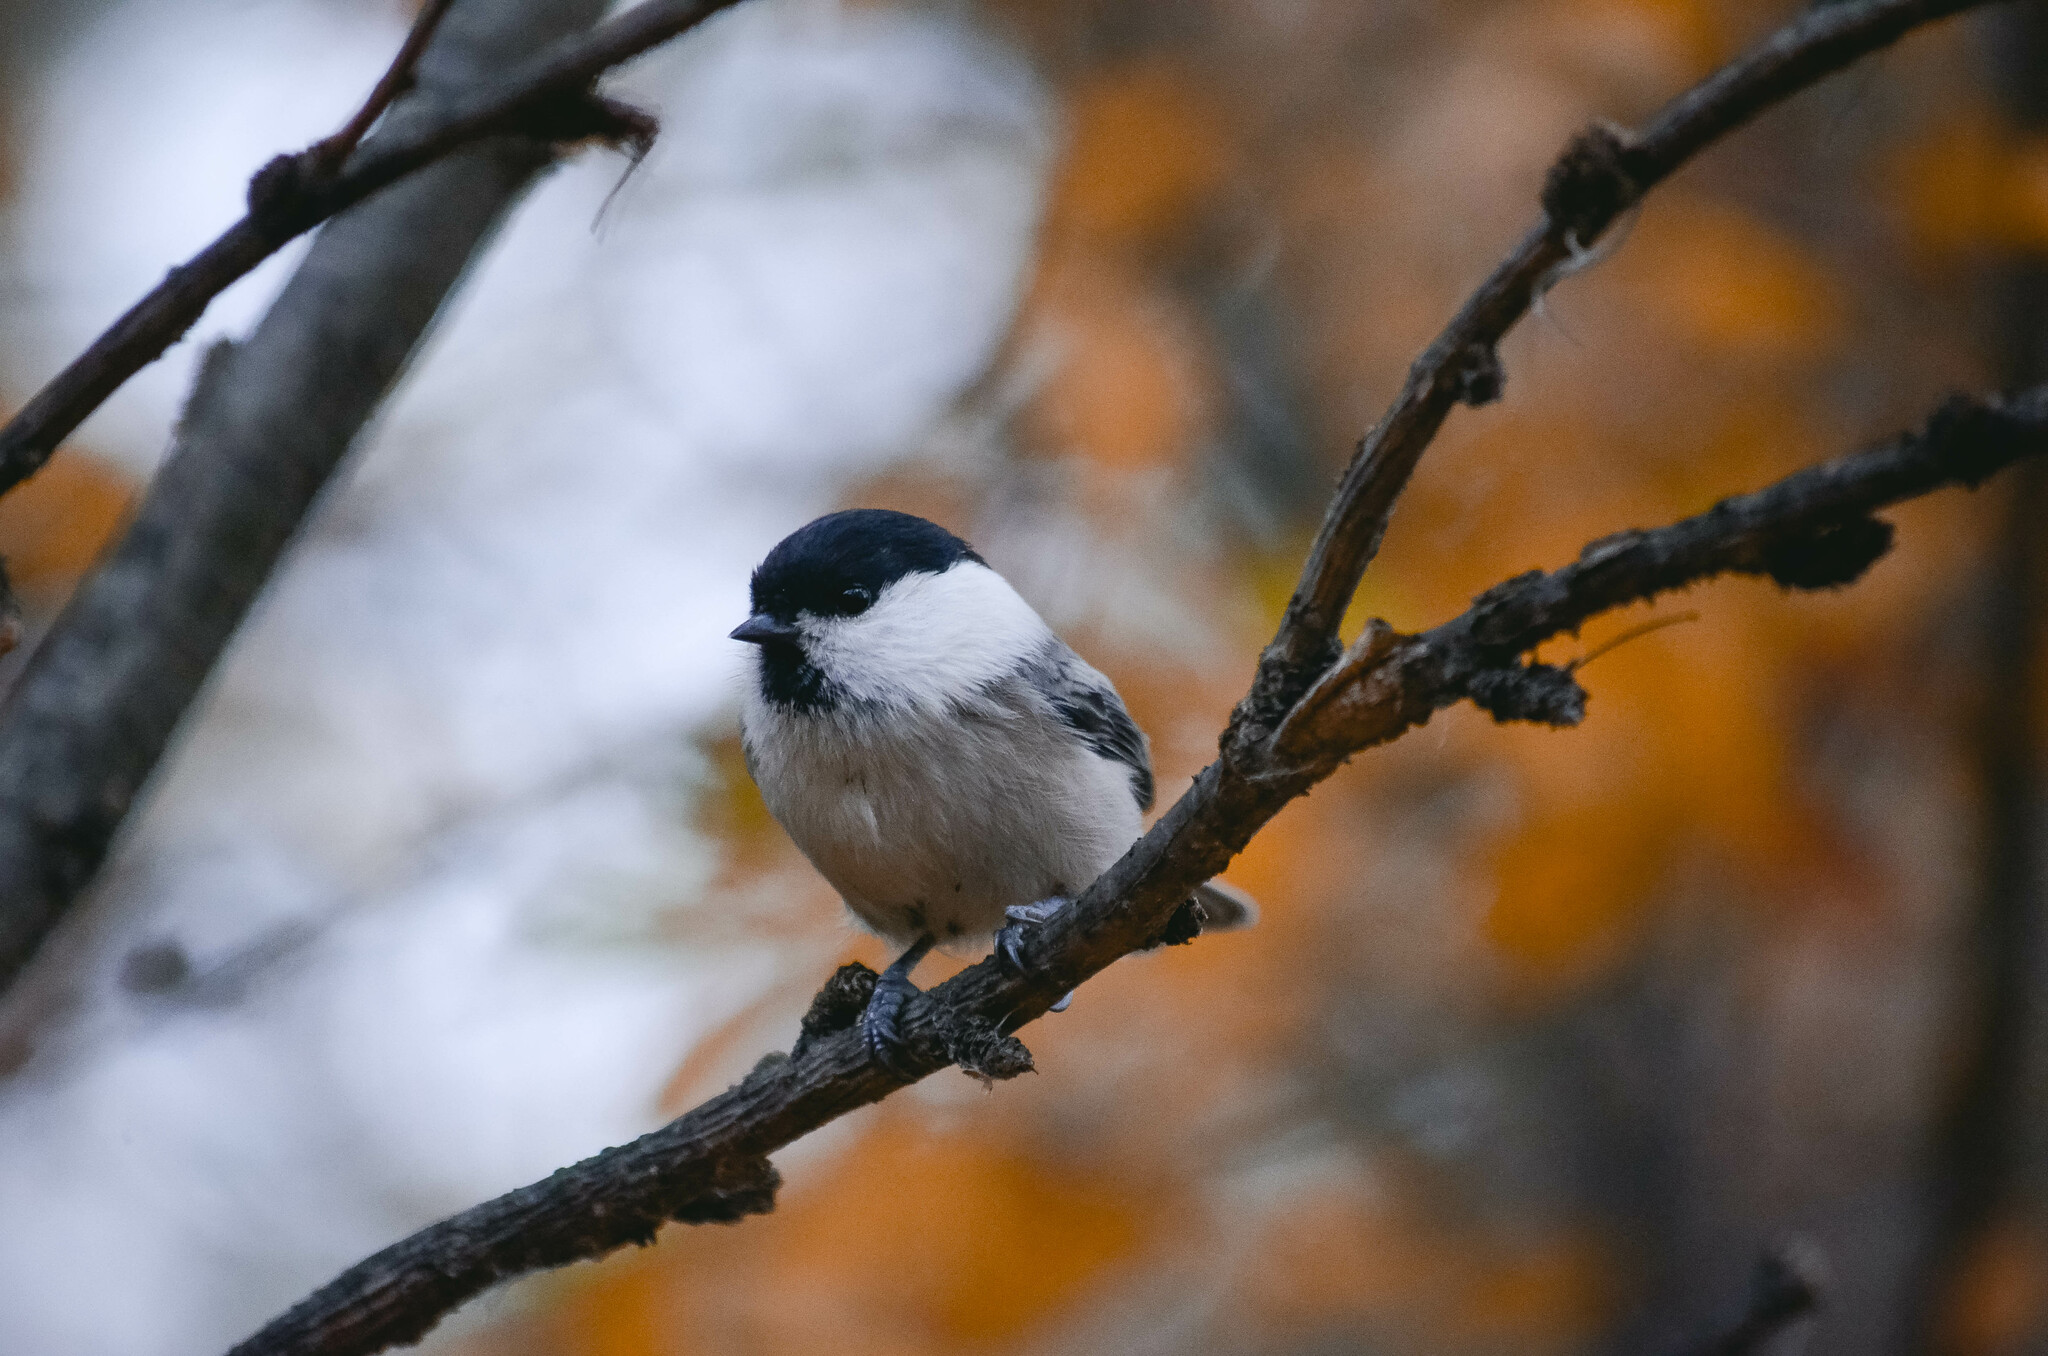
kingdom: Animalia
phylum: Chordata
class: Aves
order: Passeriformes
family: Paridae
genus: Poecile
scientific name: Poecile montanus
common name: Willow tit
